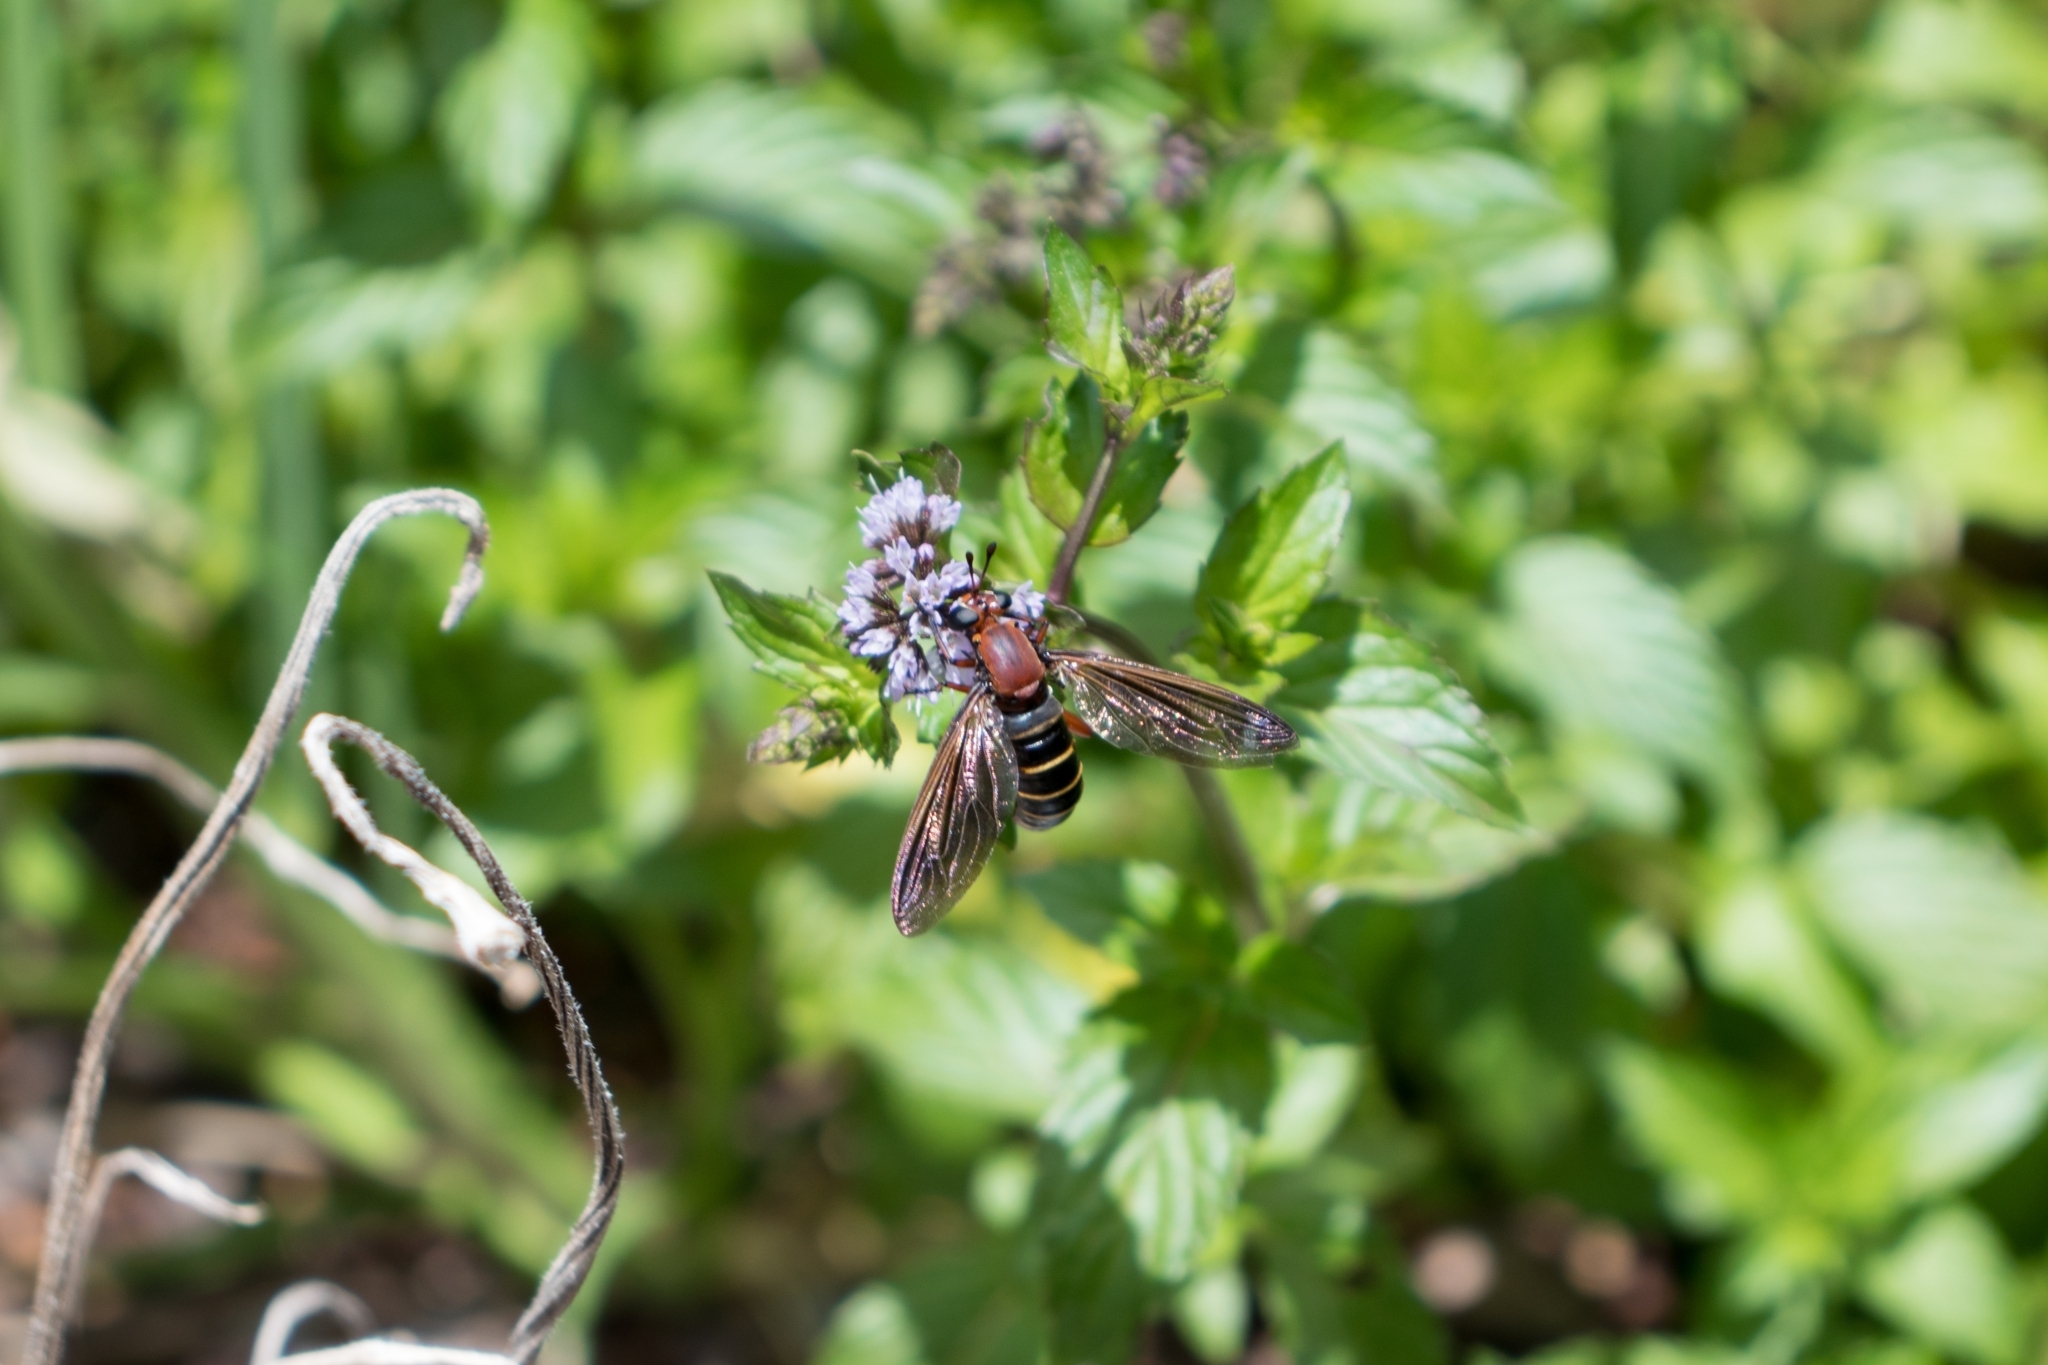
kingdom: Animalia
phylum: Arthropoda
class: Insecta
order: Diptera
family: Mydidae
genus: Mydas
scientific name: Mydas maculiventris
